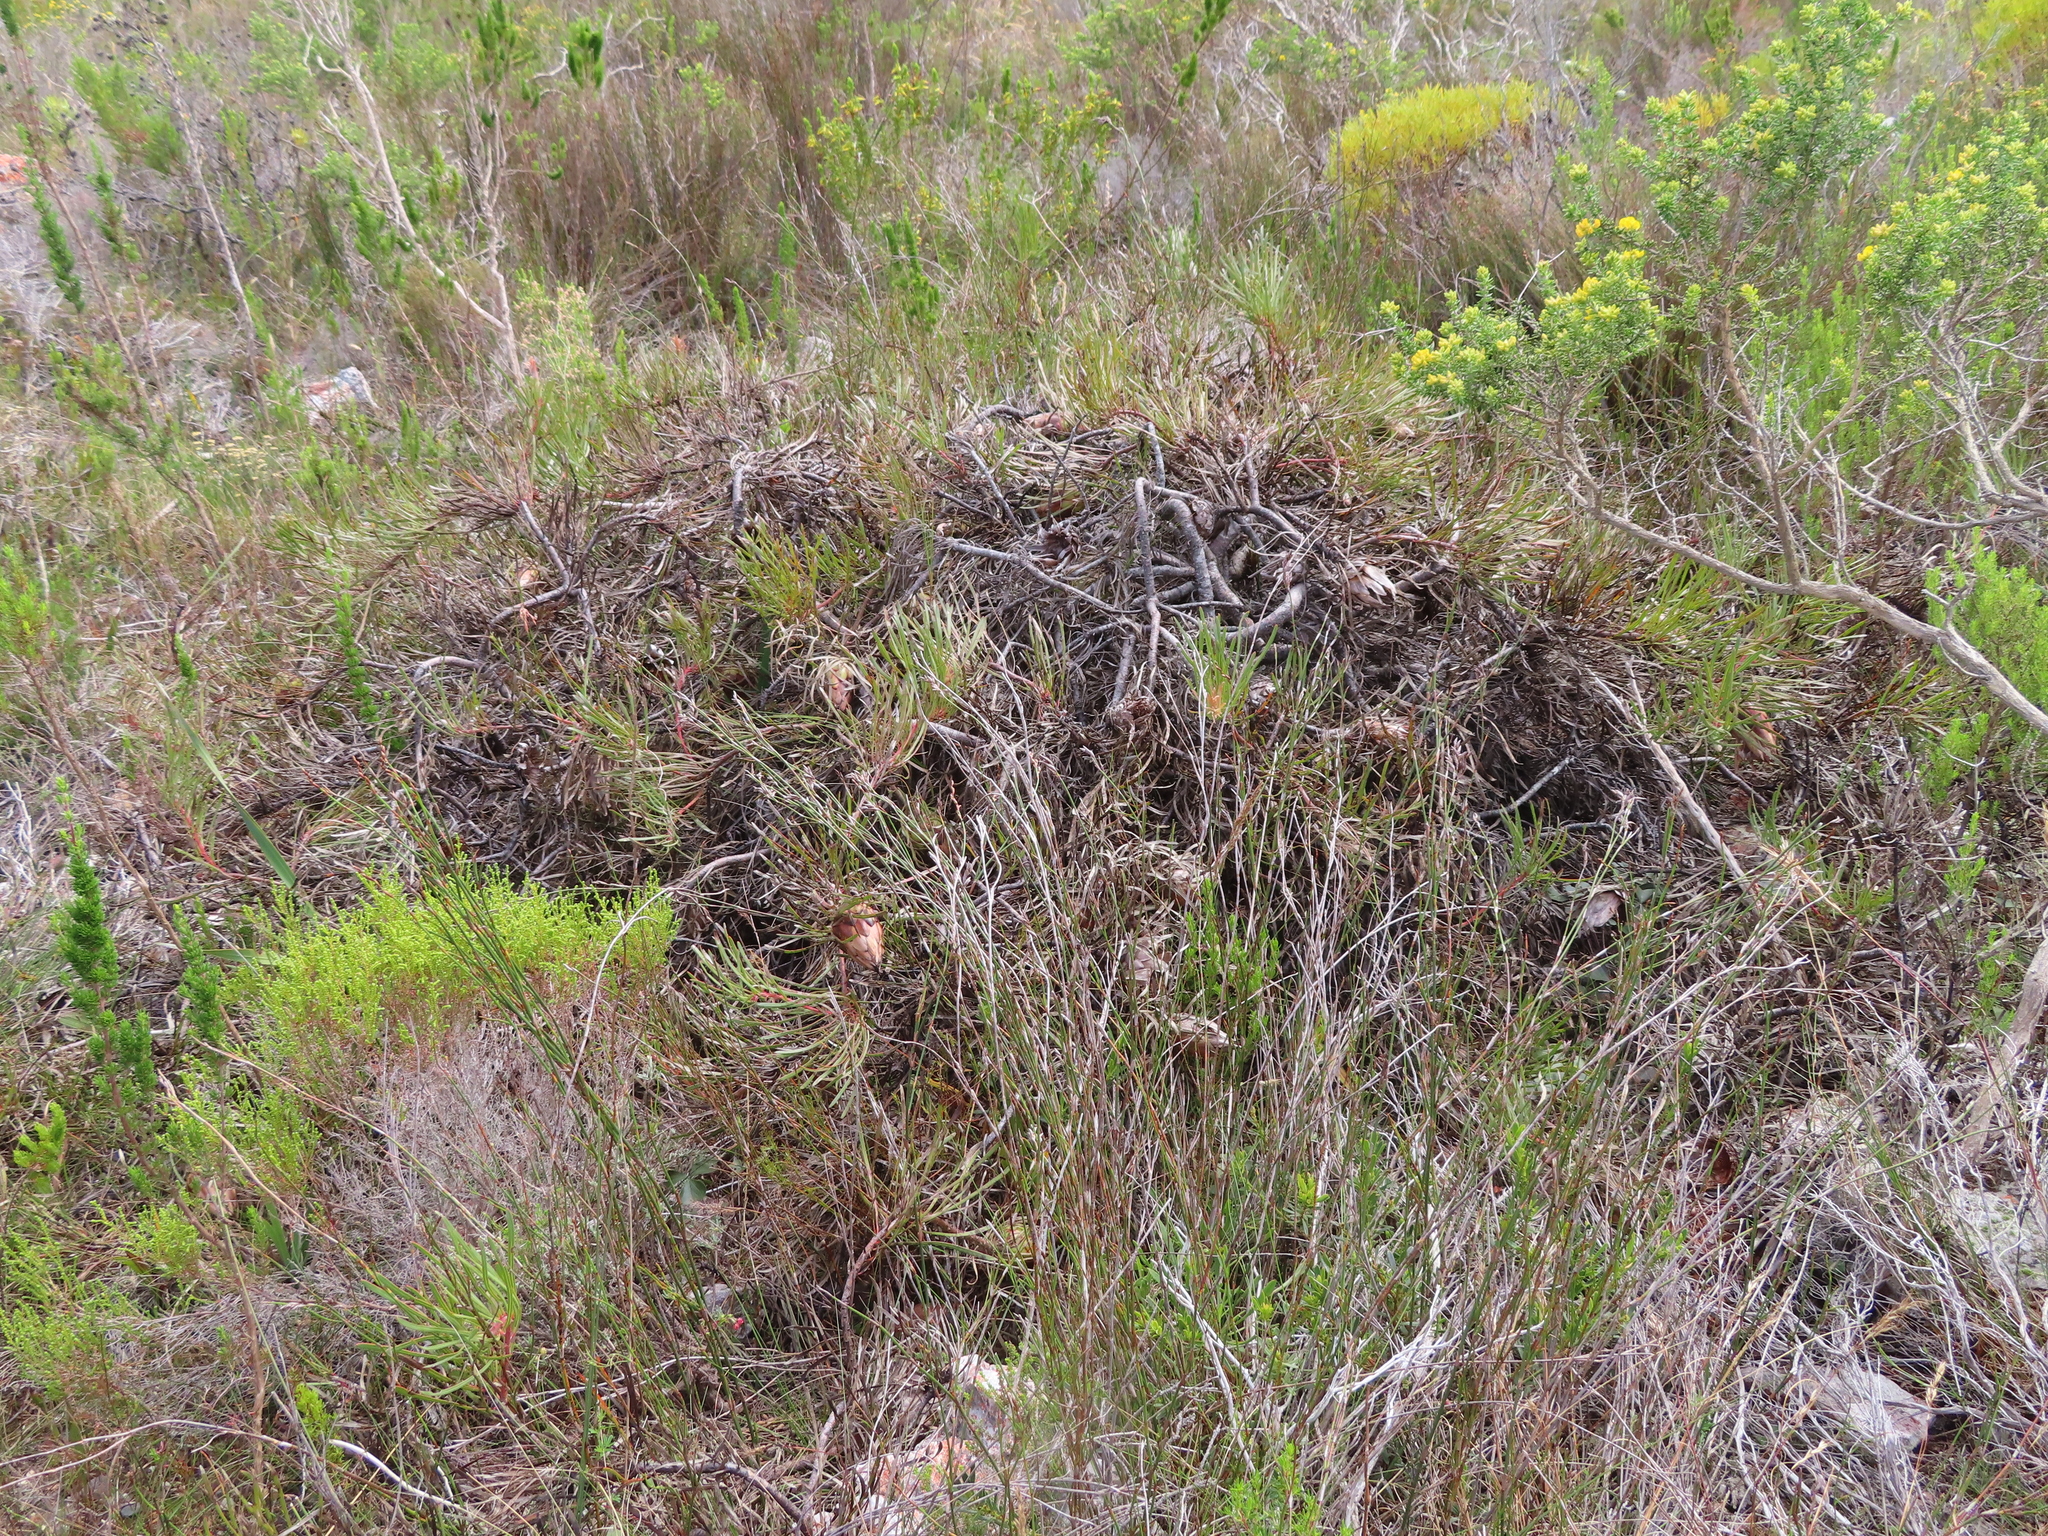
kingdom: Plantae
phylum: Tracheophyta
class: Magnoliopsida
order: Proteales
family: Proteaceae
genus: Protea
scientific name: Protea pudens
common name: Bashful sugarbush
